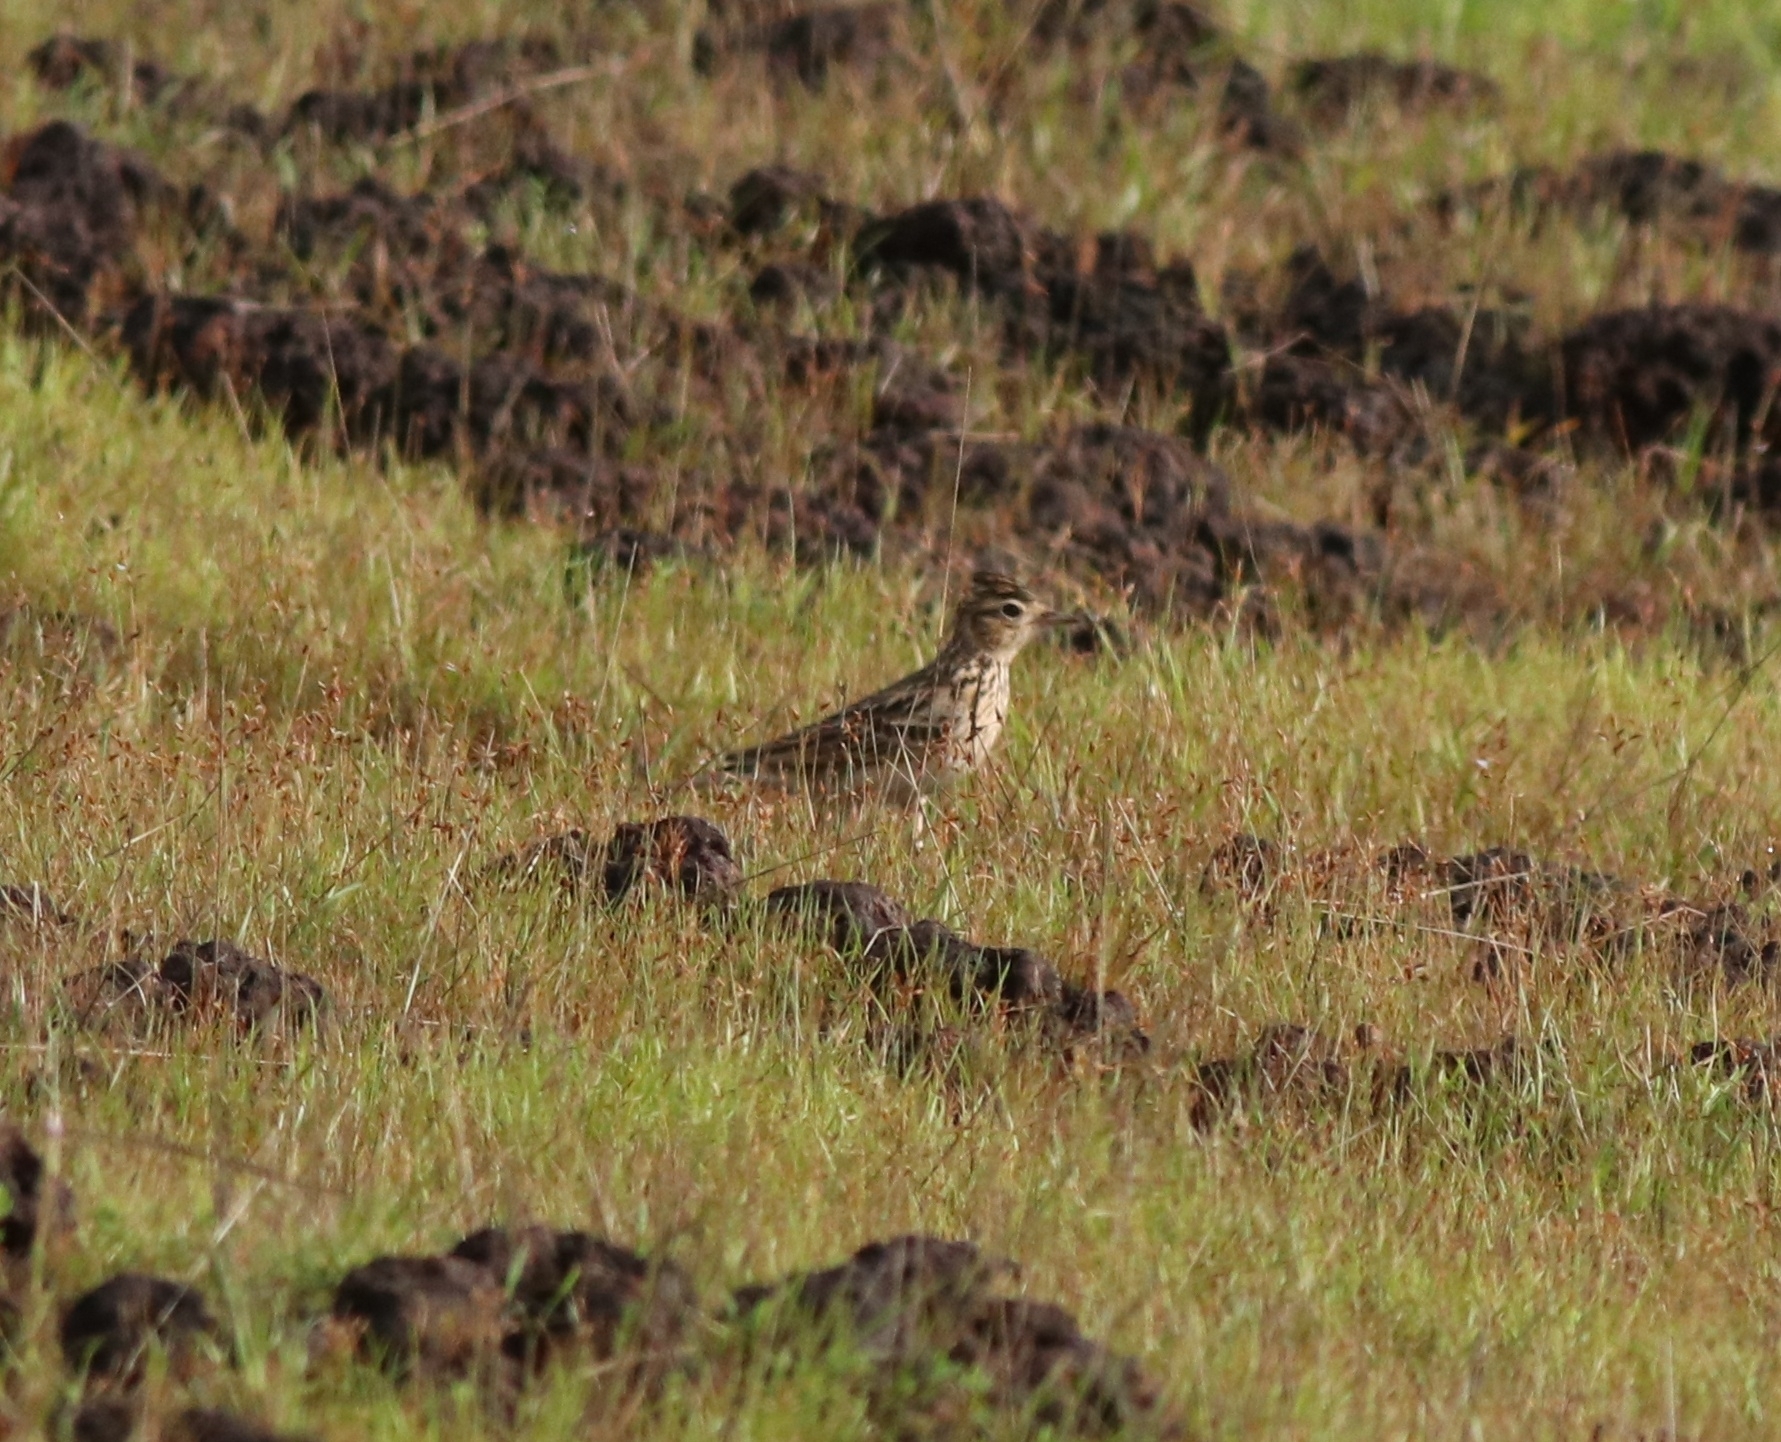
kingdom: Animalia
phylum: Chordata
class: Aves
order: Passeriformes
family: Alaudidae
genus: Galerida
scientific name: Galerida malabarica
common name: Malabar lark
